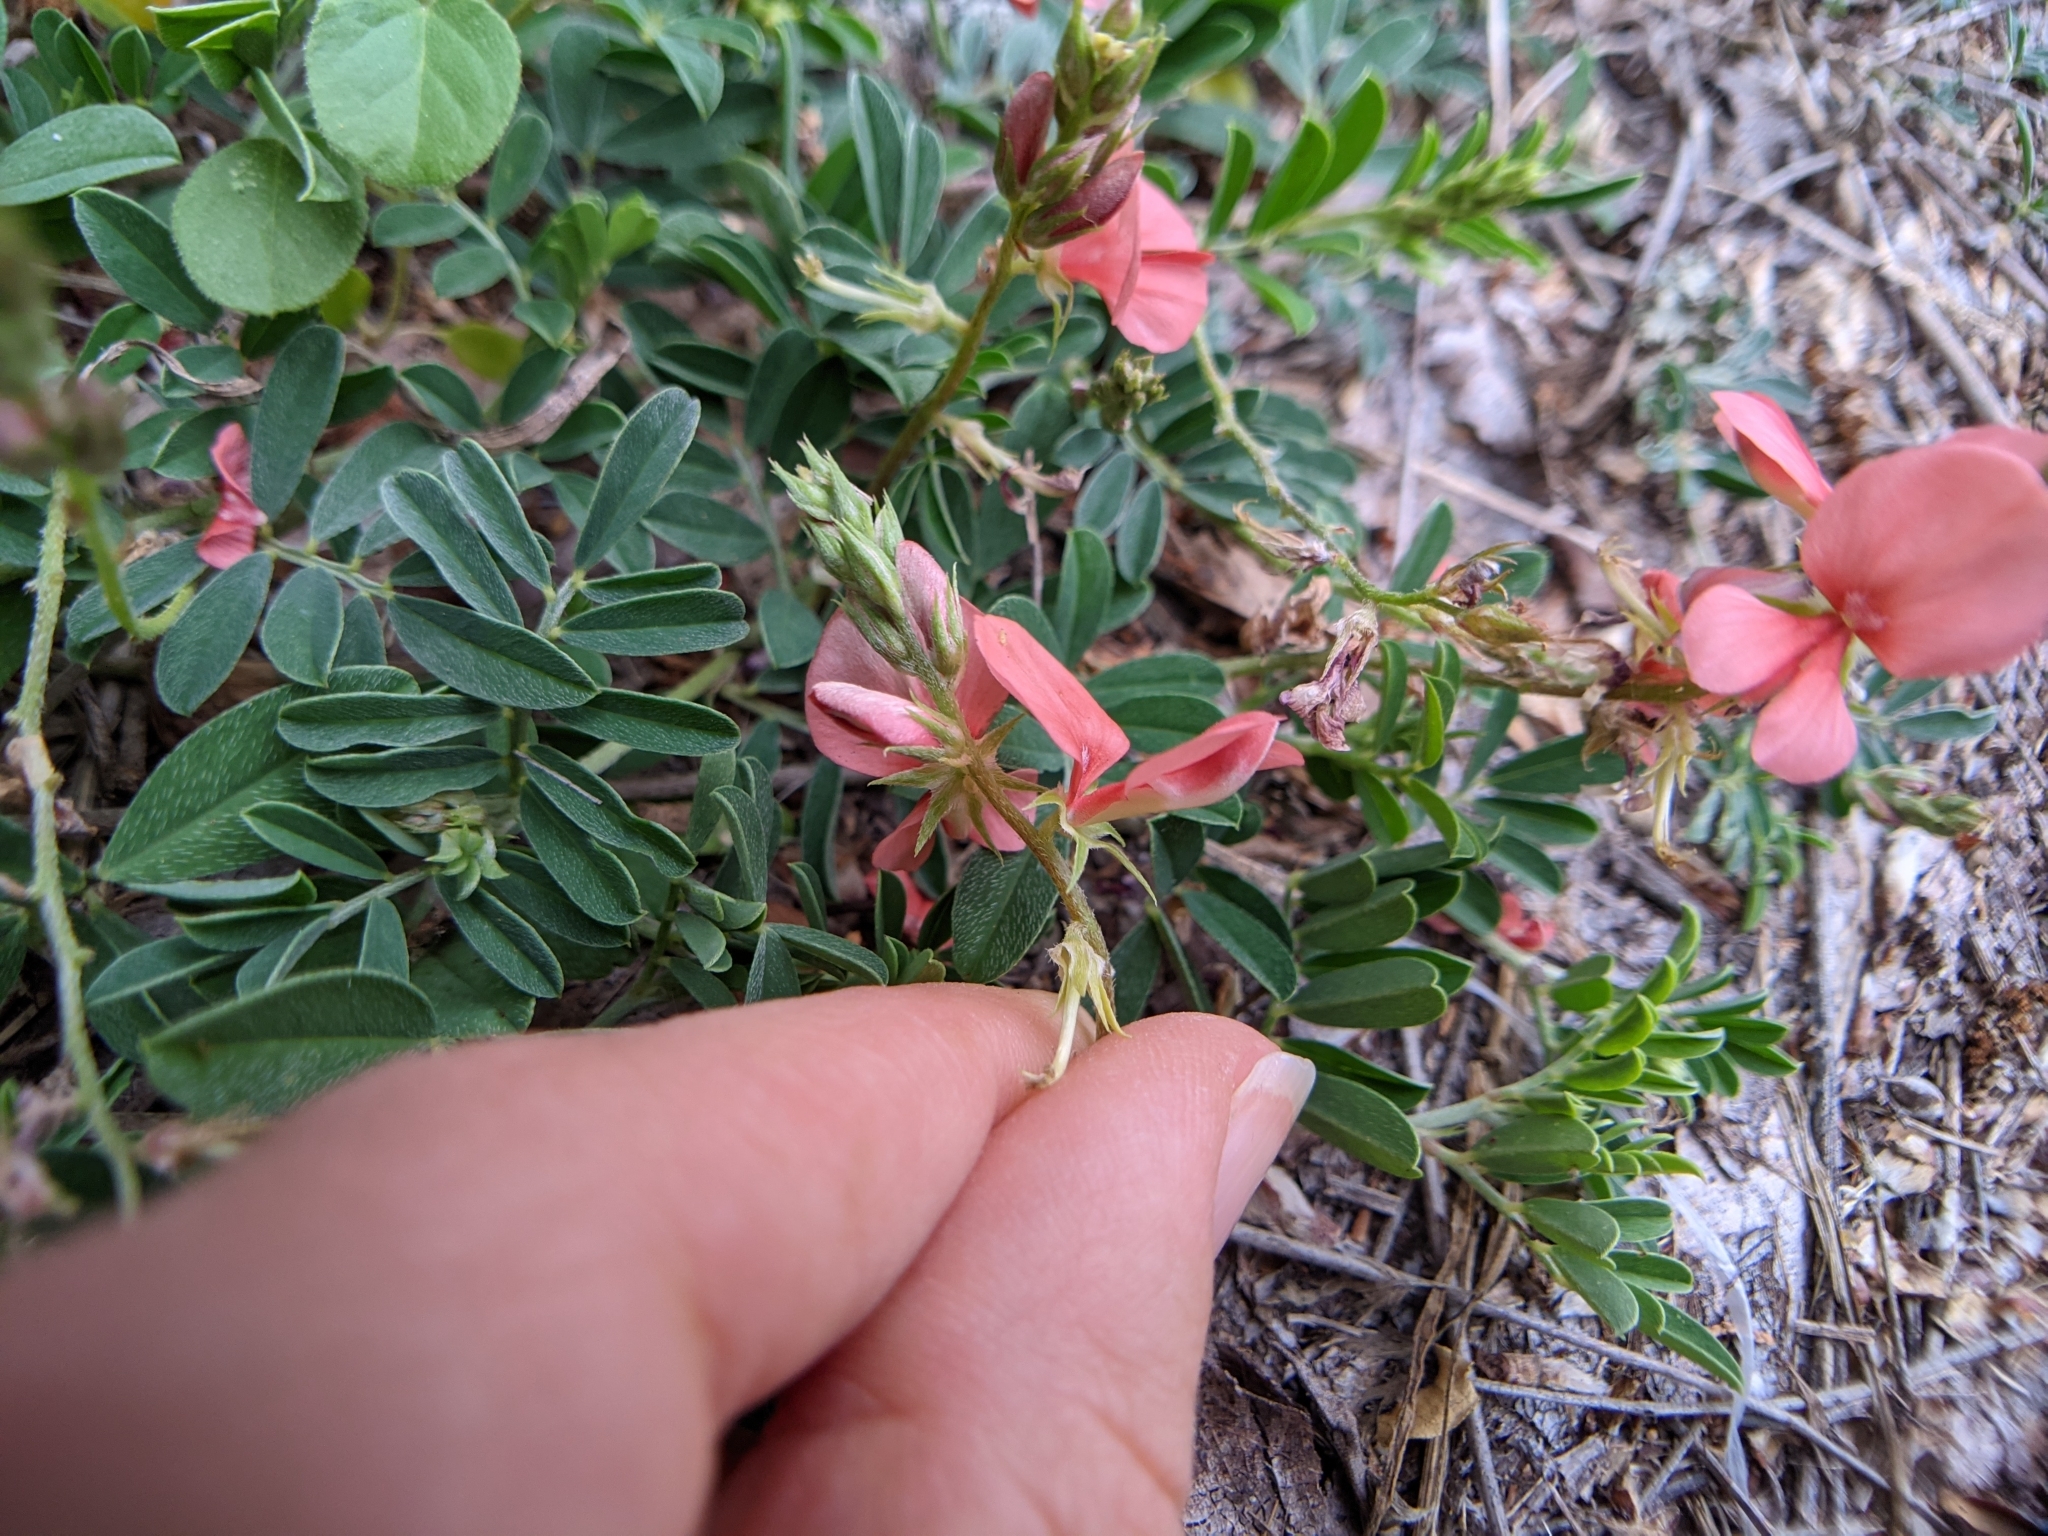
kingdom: Plantae
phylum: Tracheophyta
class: Magnoliopsida
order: Fabales
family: Fabaceae
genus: Indigofera
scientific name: Indigofera miniata
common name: Coast indigo
